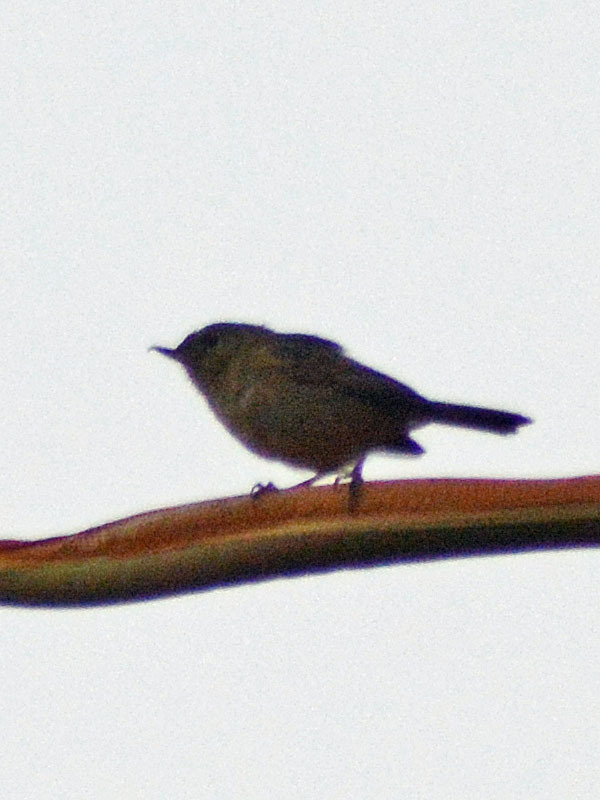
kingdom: Animalia
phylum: Chordata
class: Aves
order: Passeriformes
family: Thraupidae
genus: Diglossa
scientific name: Diglossa baritula
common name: Cinnamon-bellied flowerpiercer
